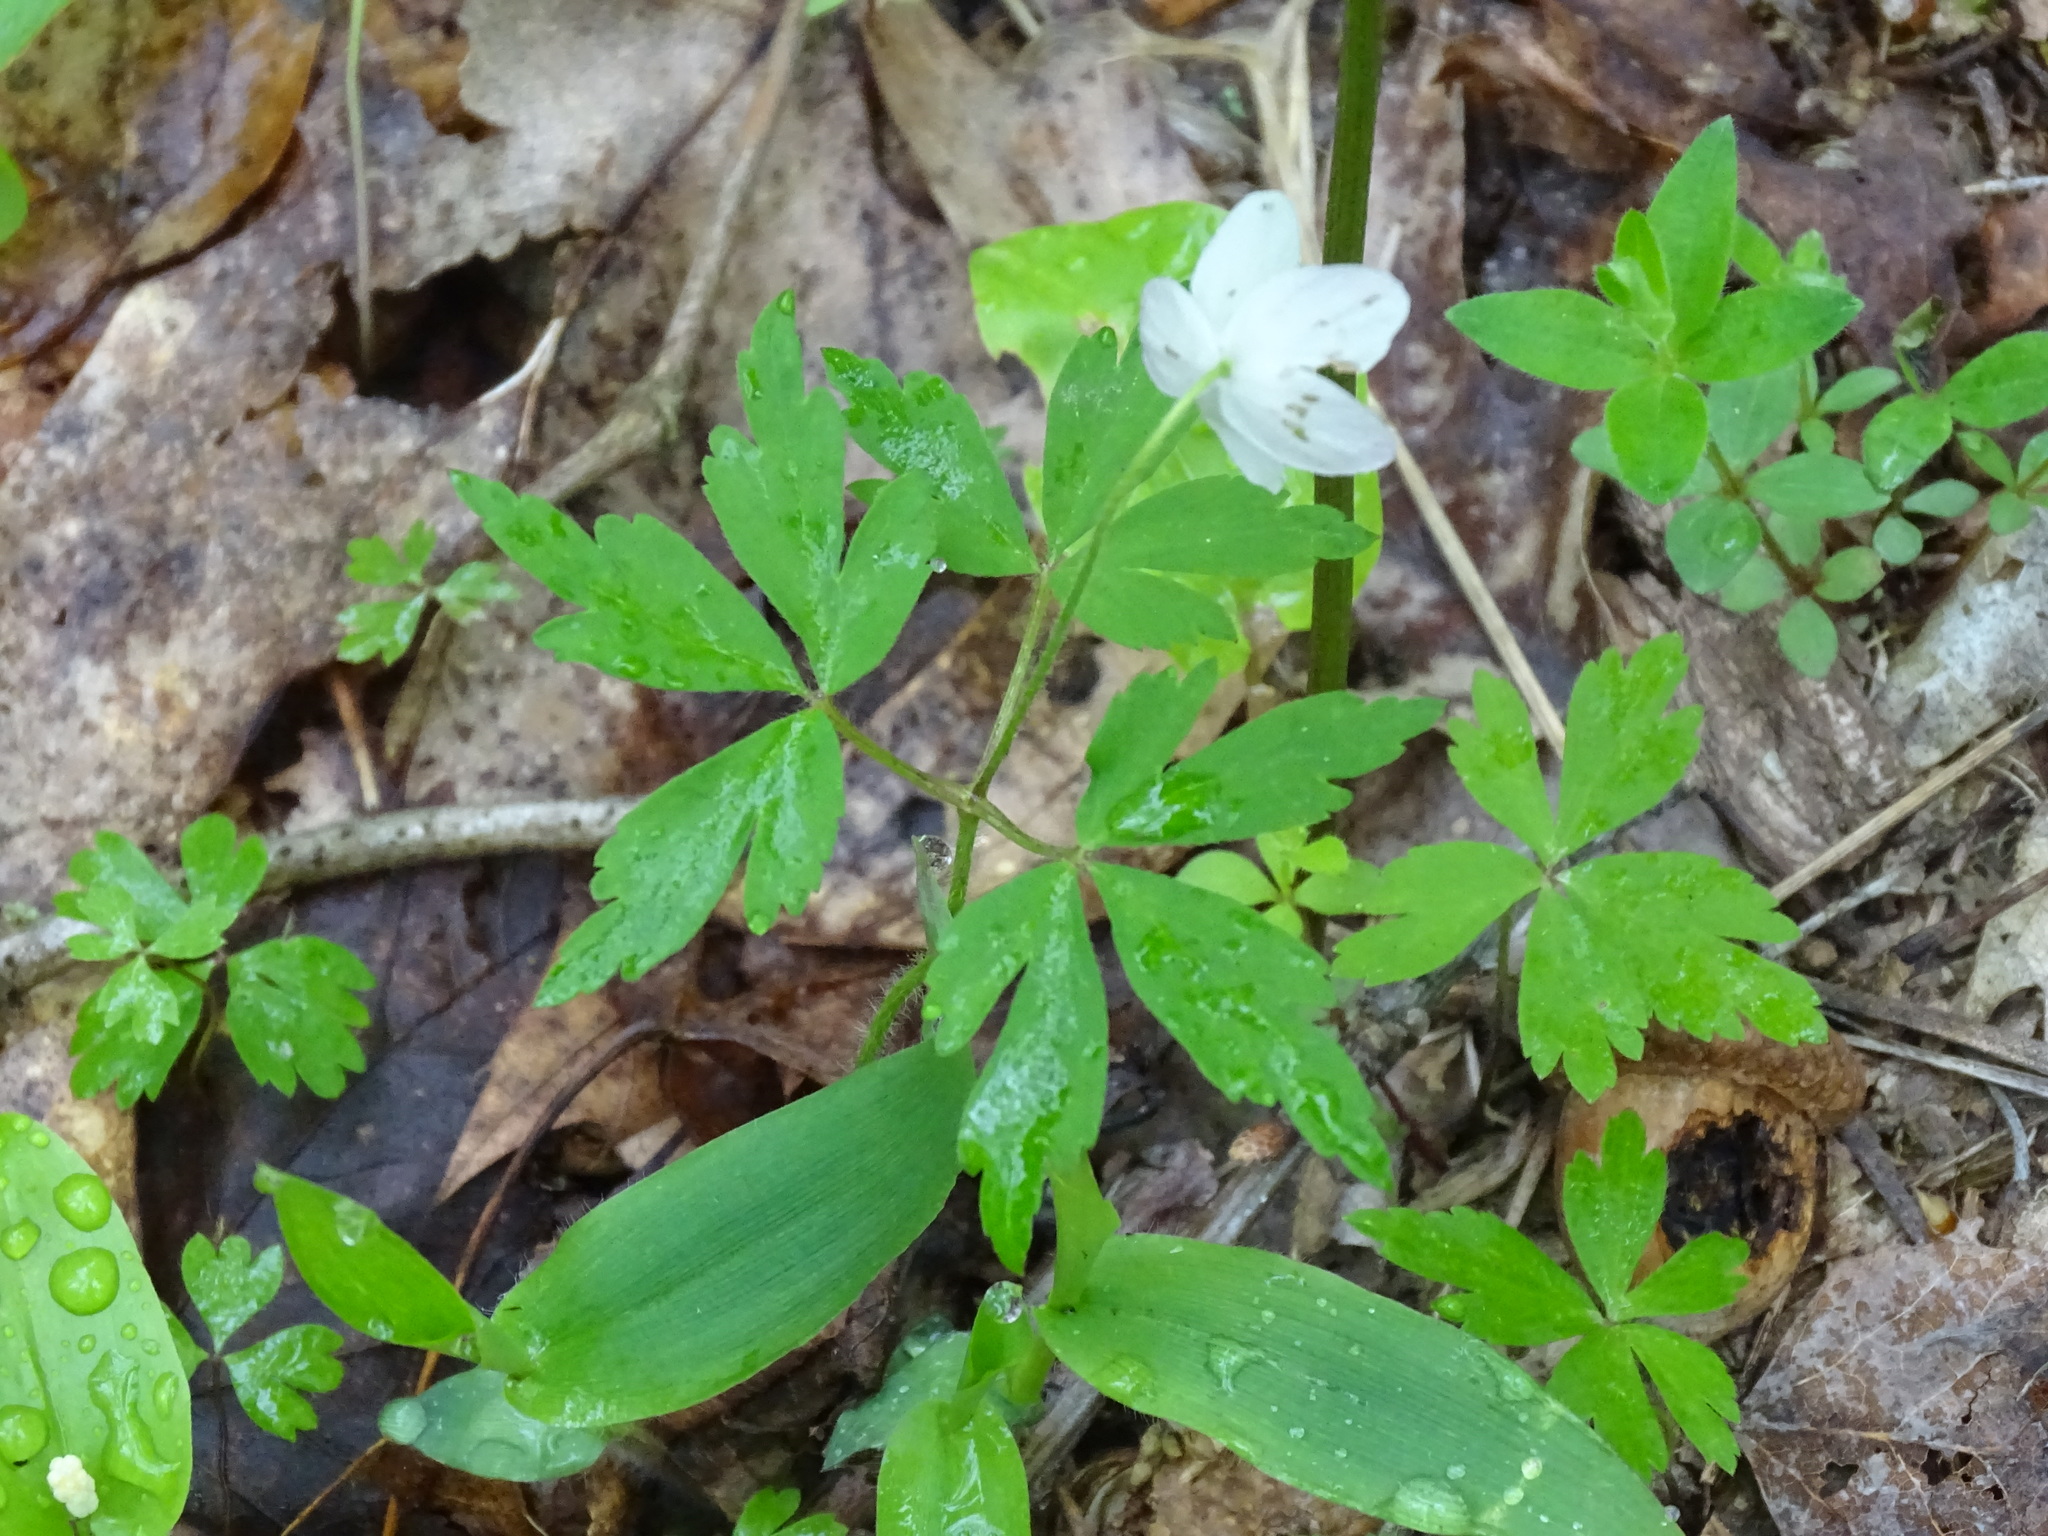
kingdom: Plantae
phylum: Tracheophyta
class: Magnoliopsida
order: Ranunculales
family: Ranunculaceae
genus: Anemone
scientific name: Anemone quinquefolia
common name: Wood anemone
